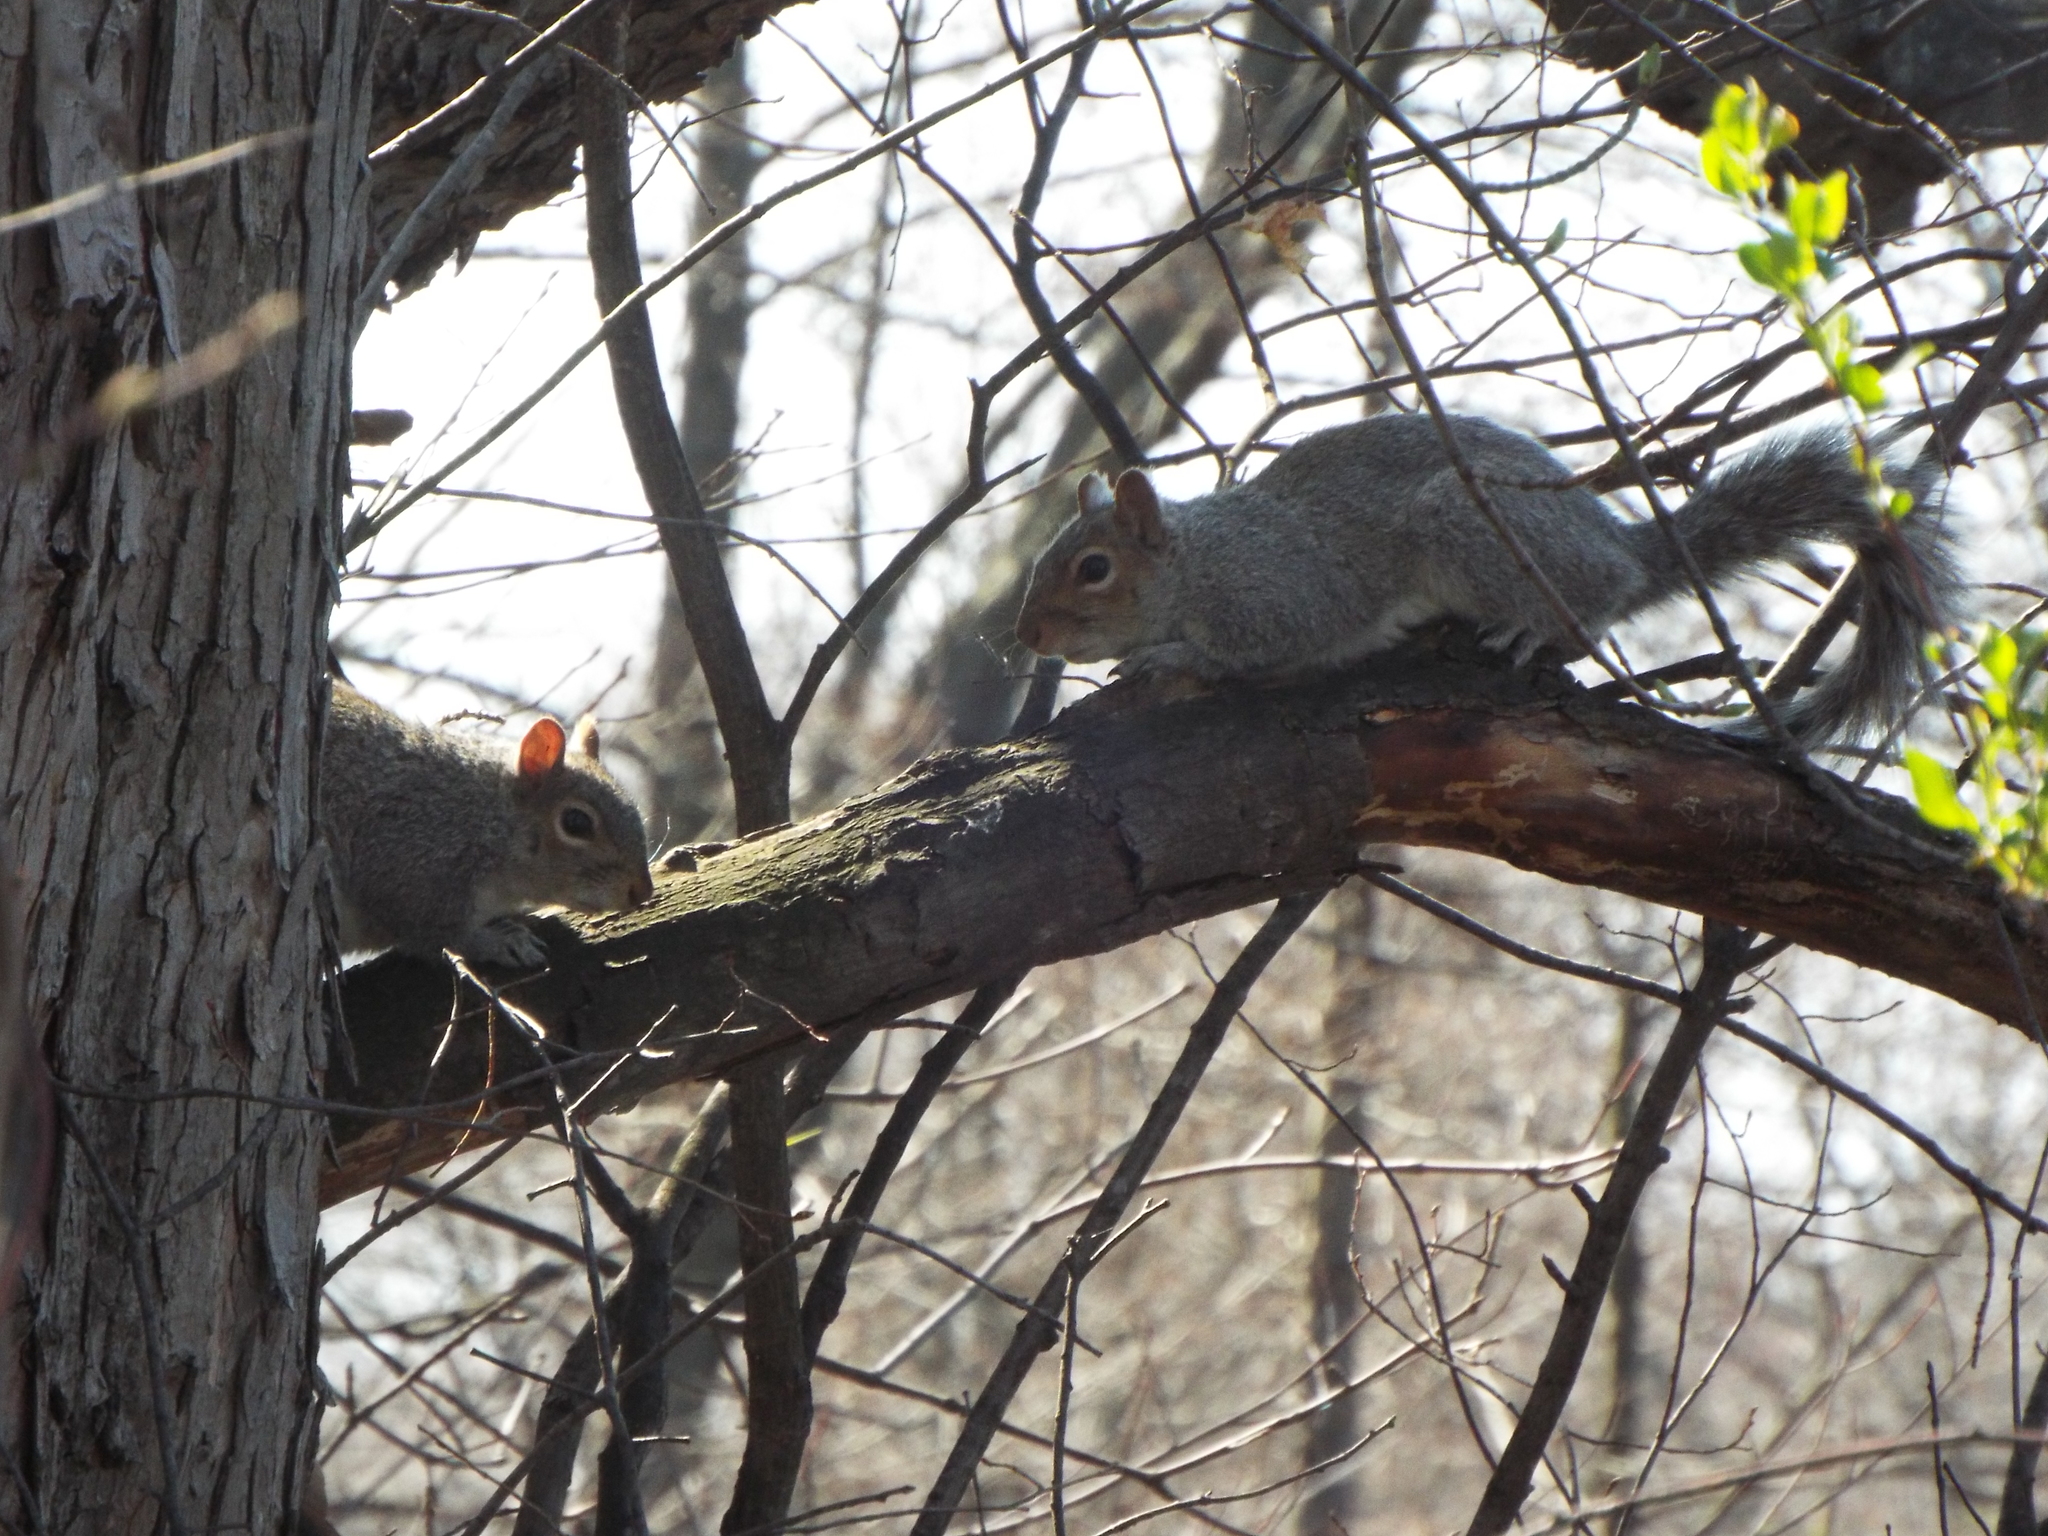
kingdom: Animalia
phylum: Chordata
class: Mammalia
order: Rodentia
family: Sciuridae
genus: Sciurus
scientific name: Sciurus carolinensis
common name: Eastern gray squirrel
